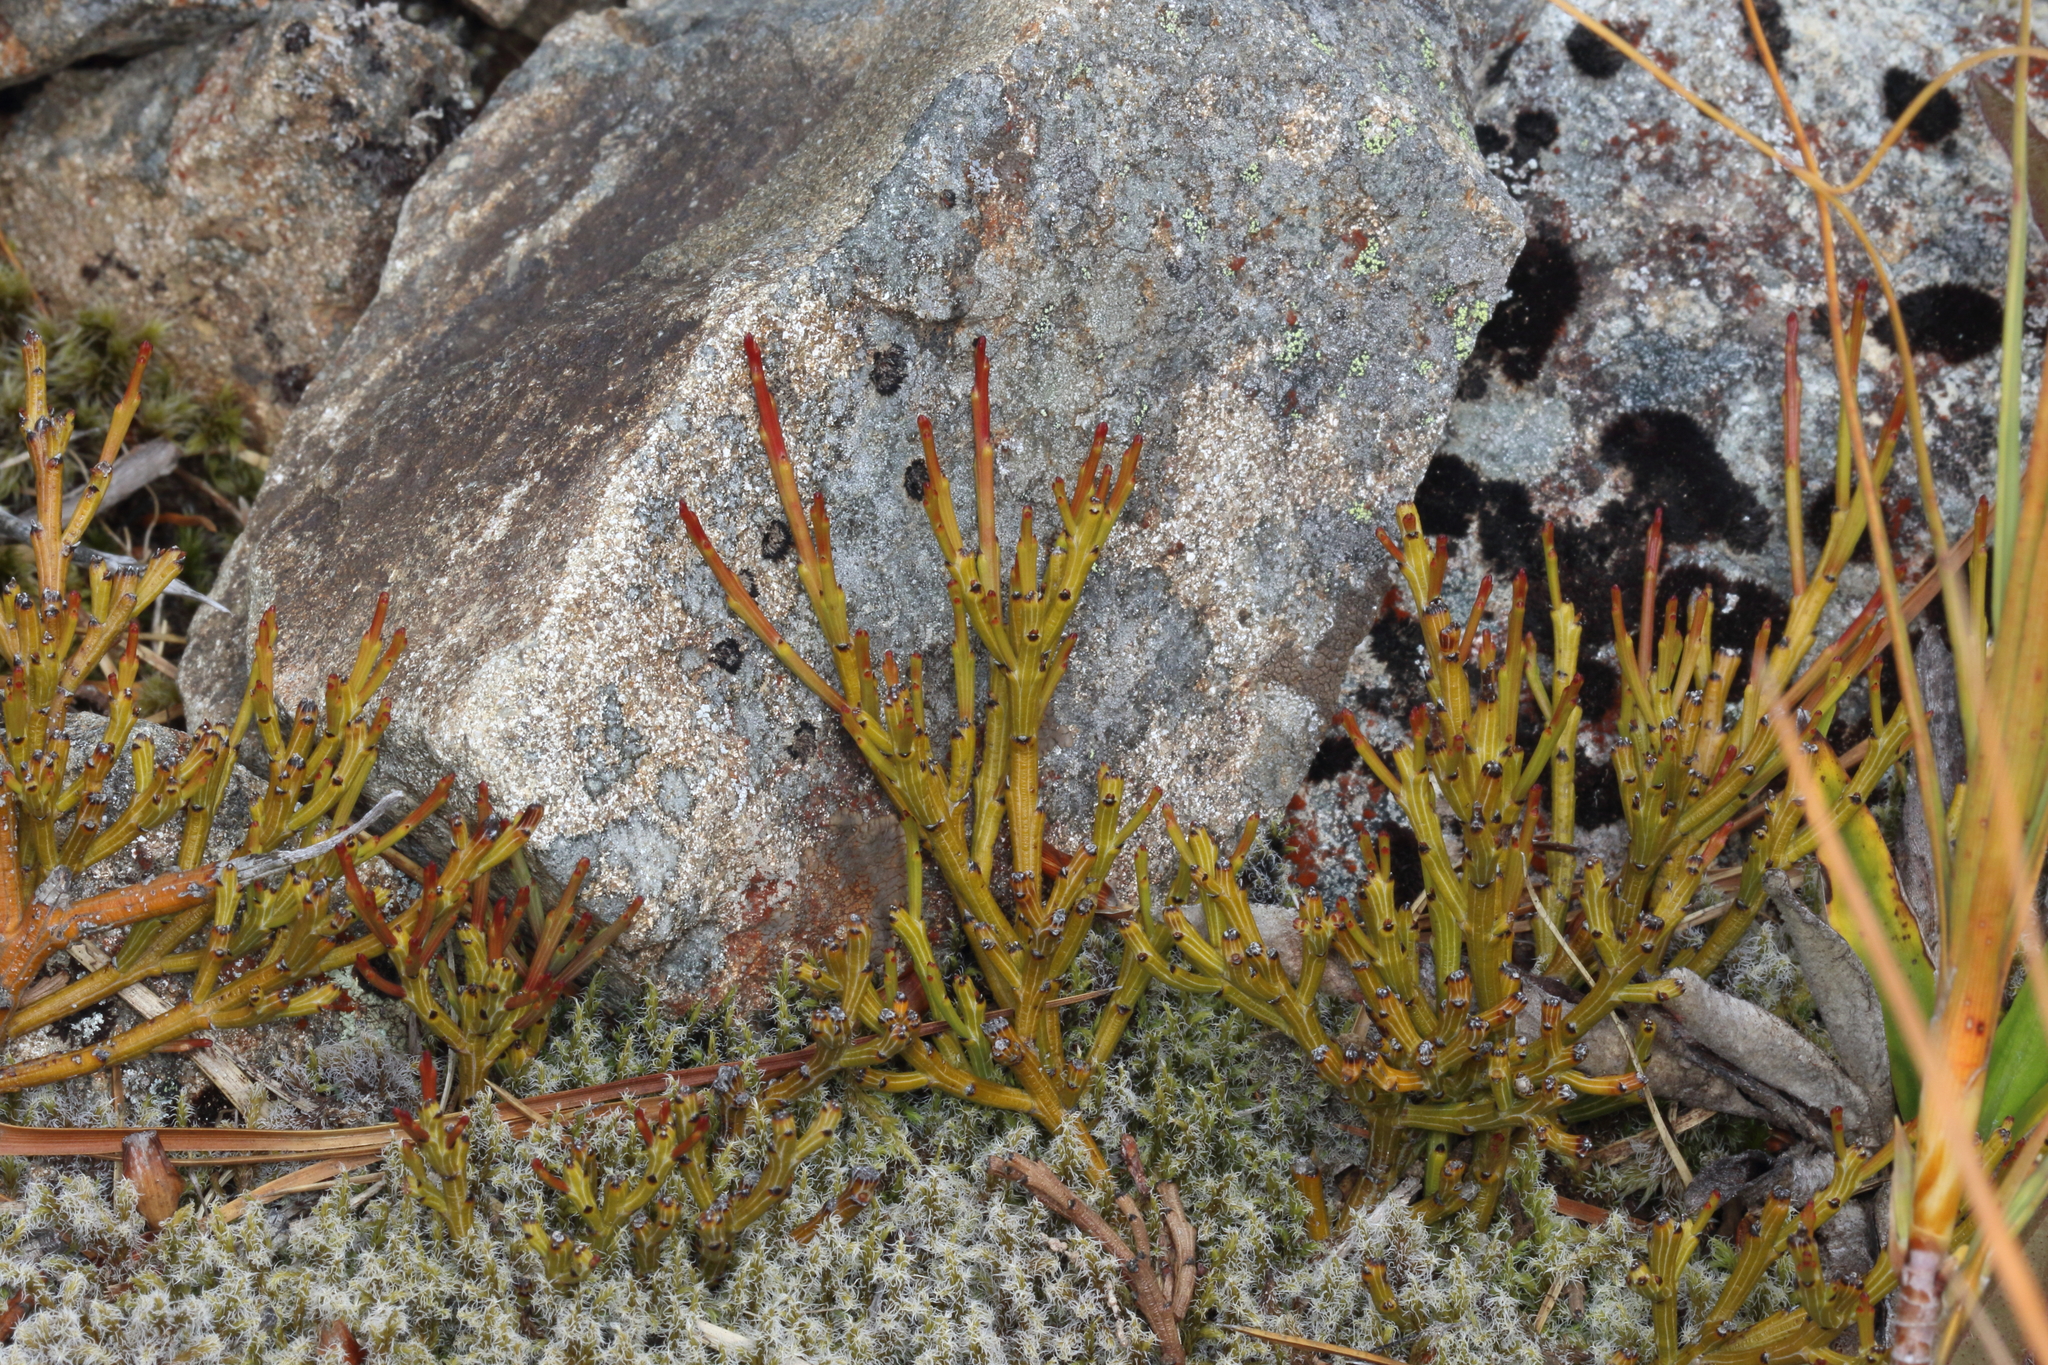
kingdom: Plantae
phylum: Tracheophyta
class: Magnoliopsida
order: Santalales
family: Santalaceae
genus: Exocarpos
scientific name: Exocarpos bidwillii
